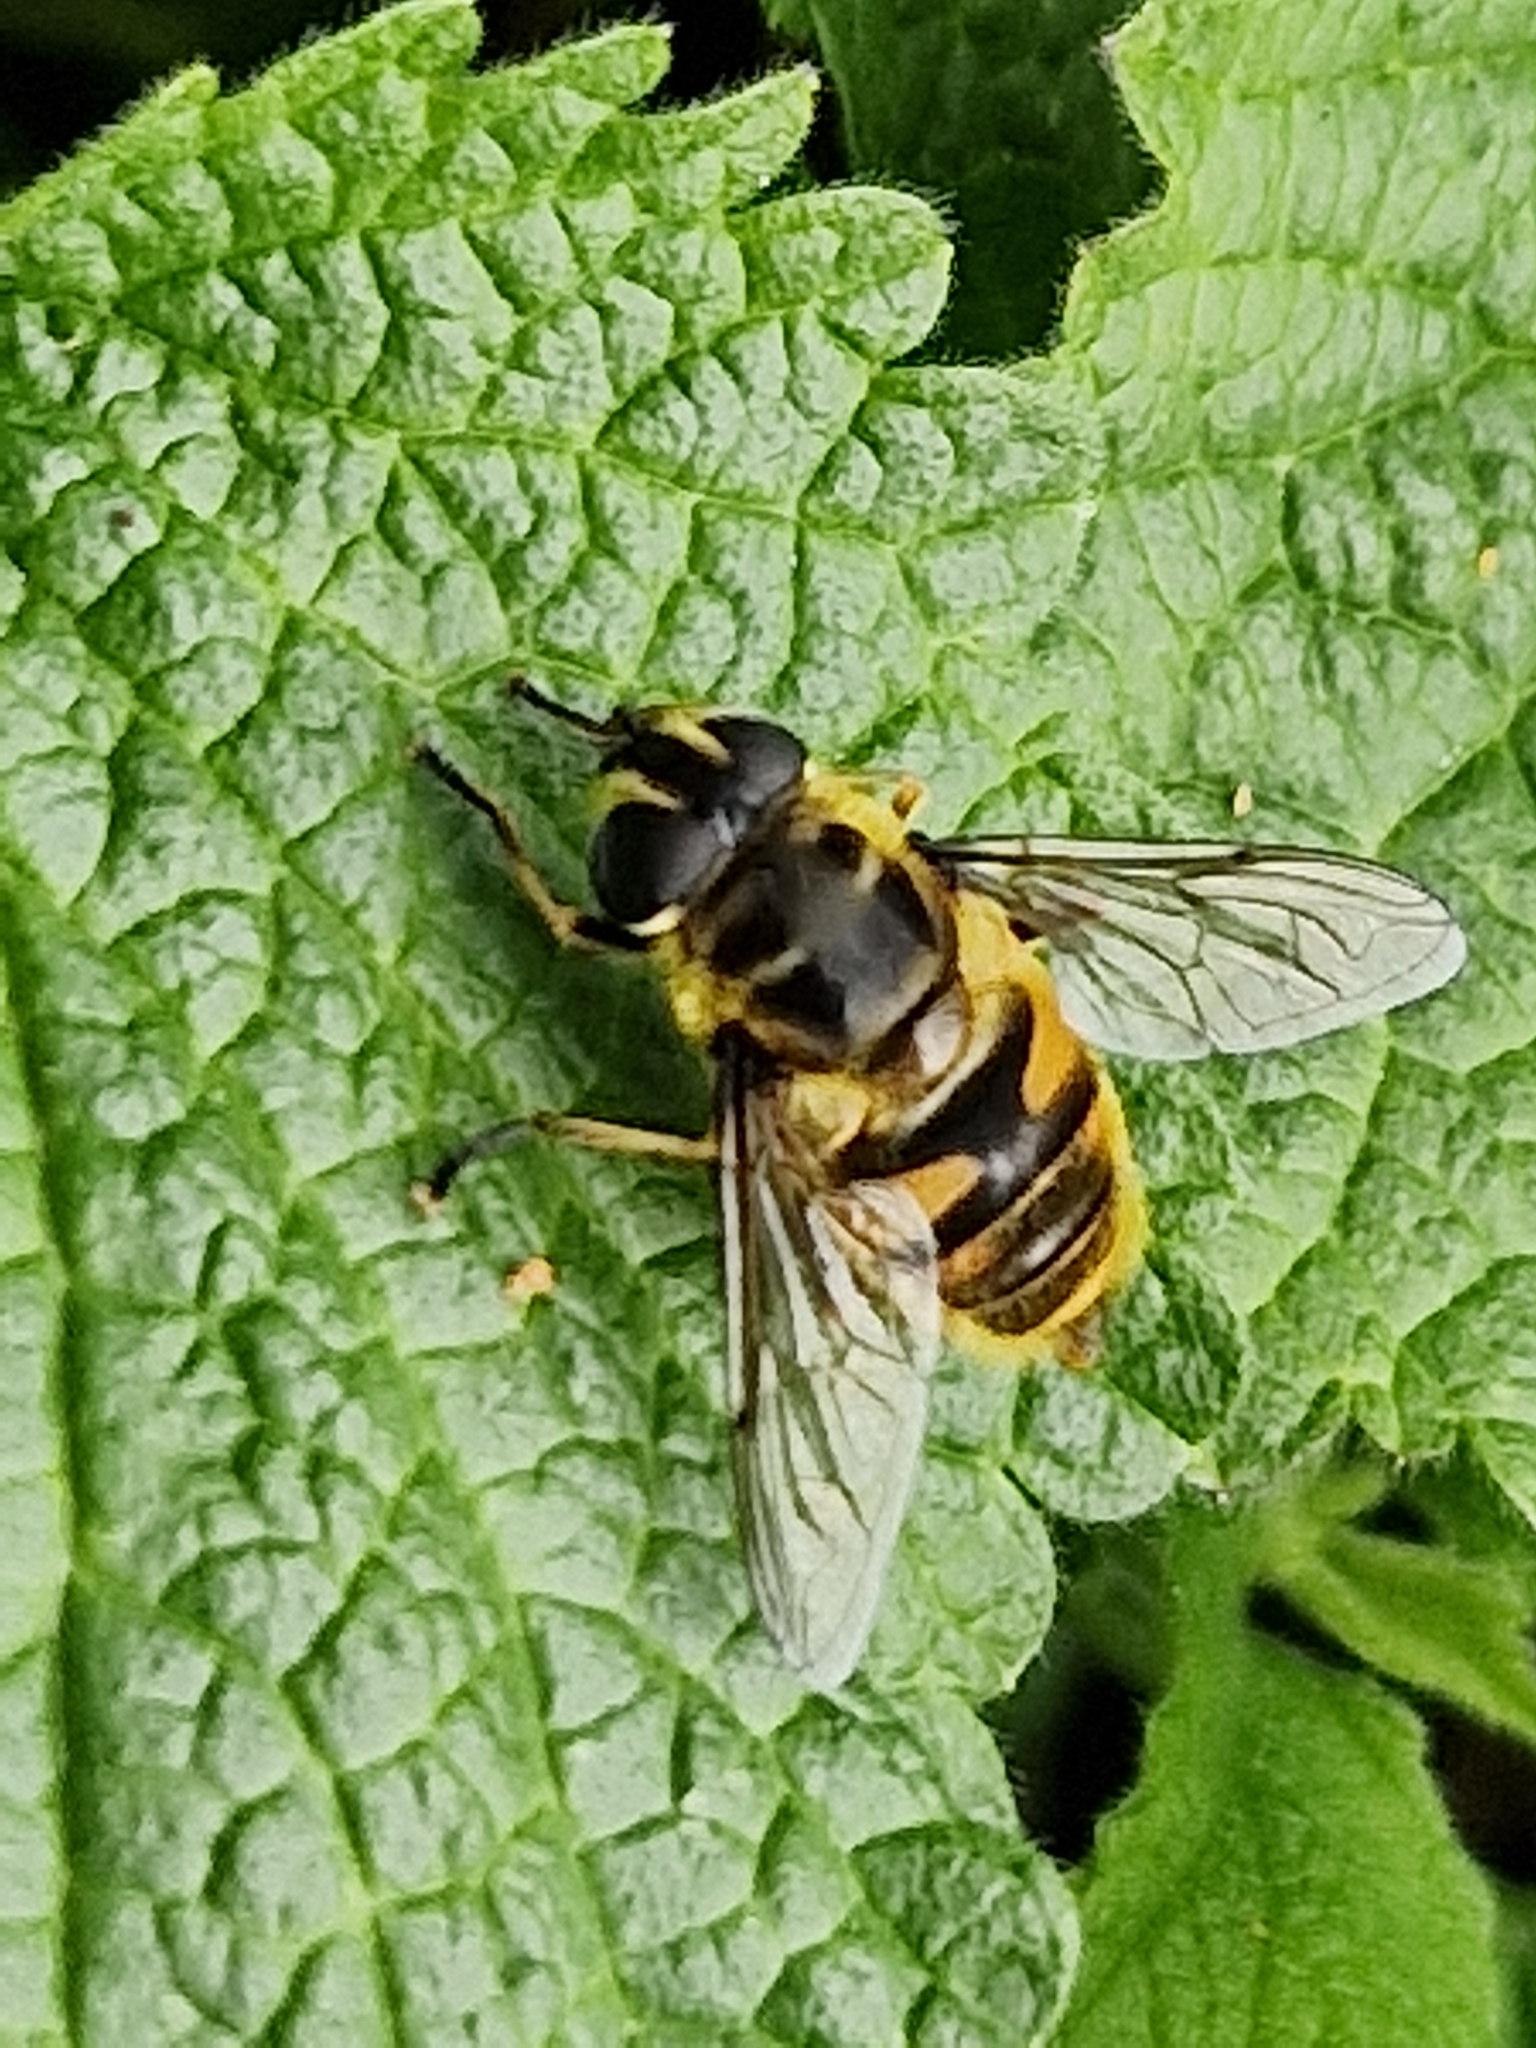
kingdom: Animalia
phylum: Arthropoda
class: Insecta
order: Diptera
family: Syrphidae
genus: Myathropa
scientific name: Myathropa florea
